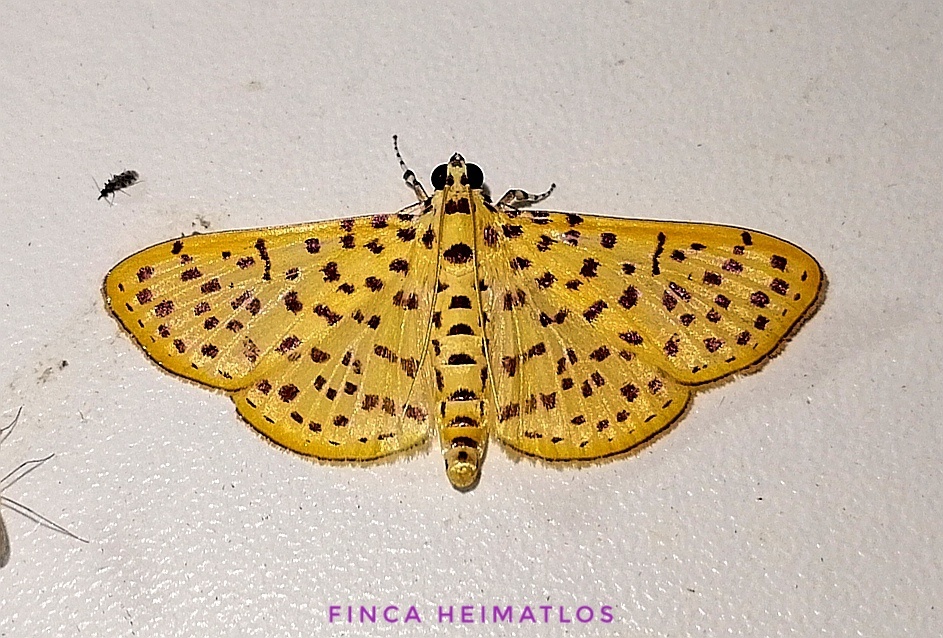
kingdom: Animalia
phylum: Arthropoda
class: Insecta
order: Lepidoptera
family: Crambidae
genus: Polygrammodes
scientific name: Polygrammodes elevata
